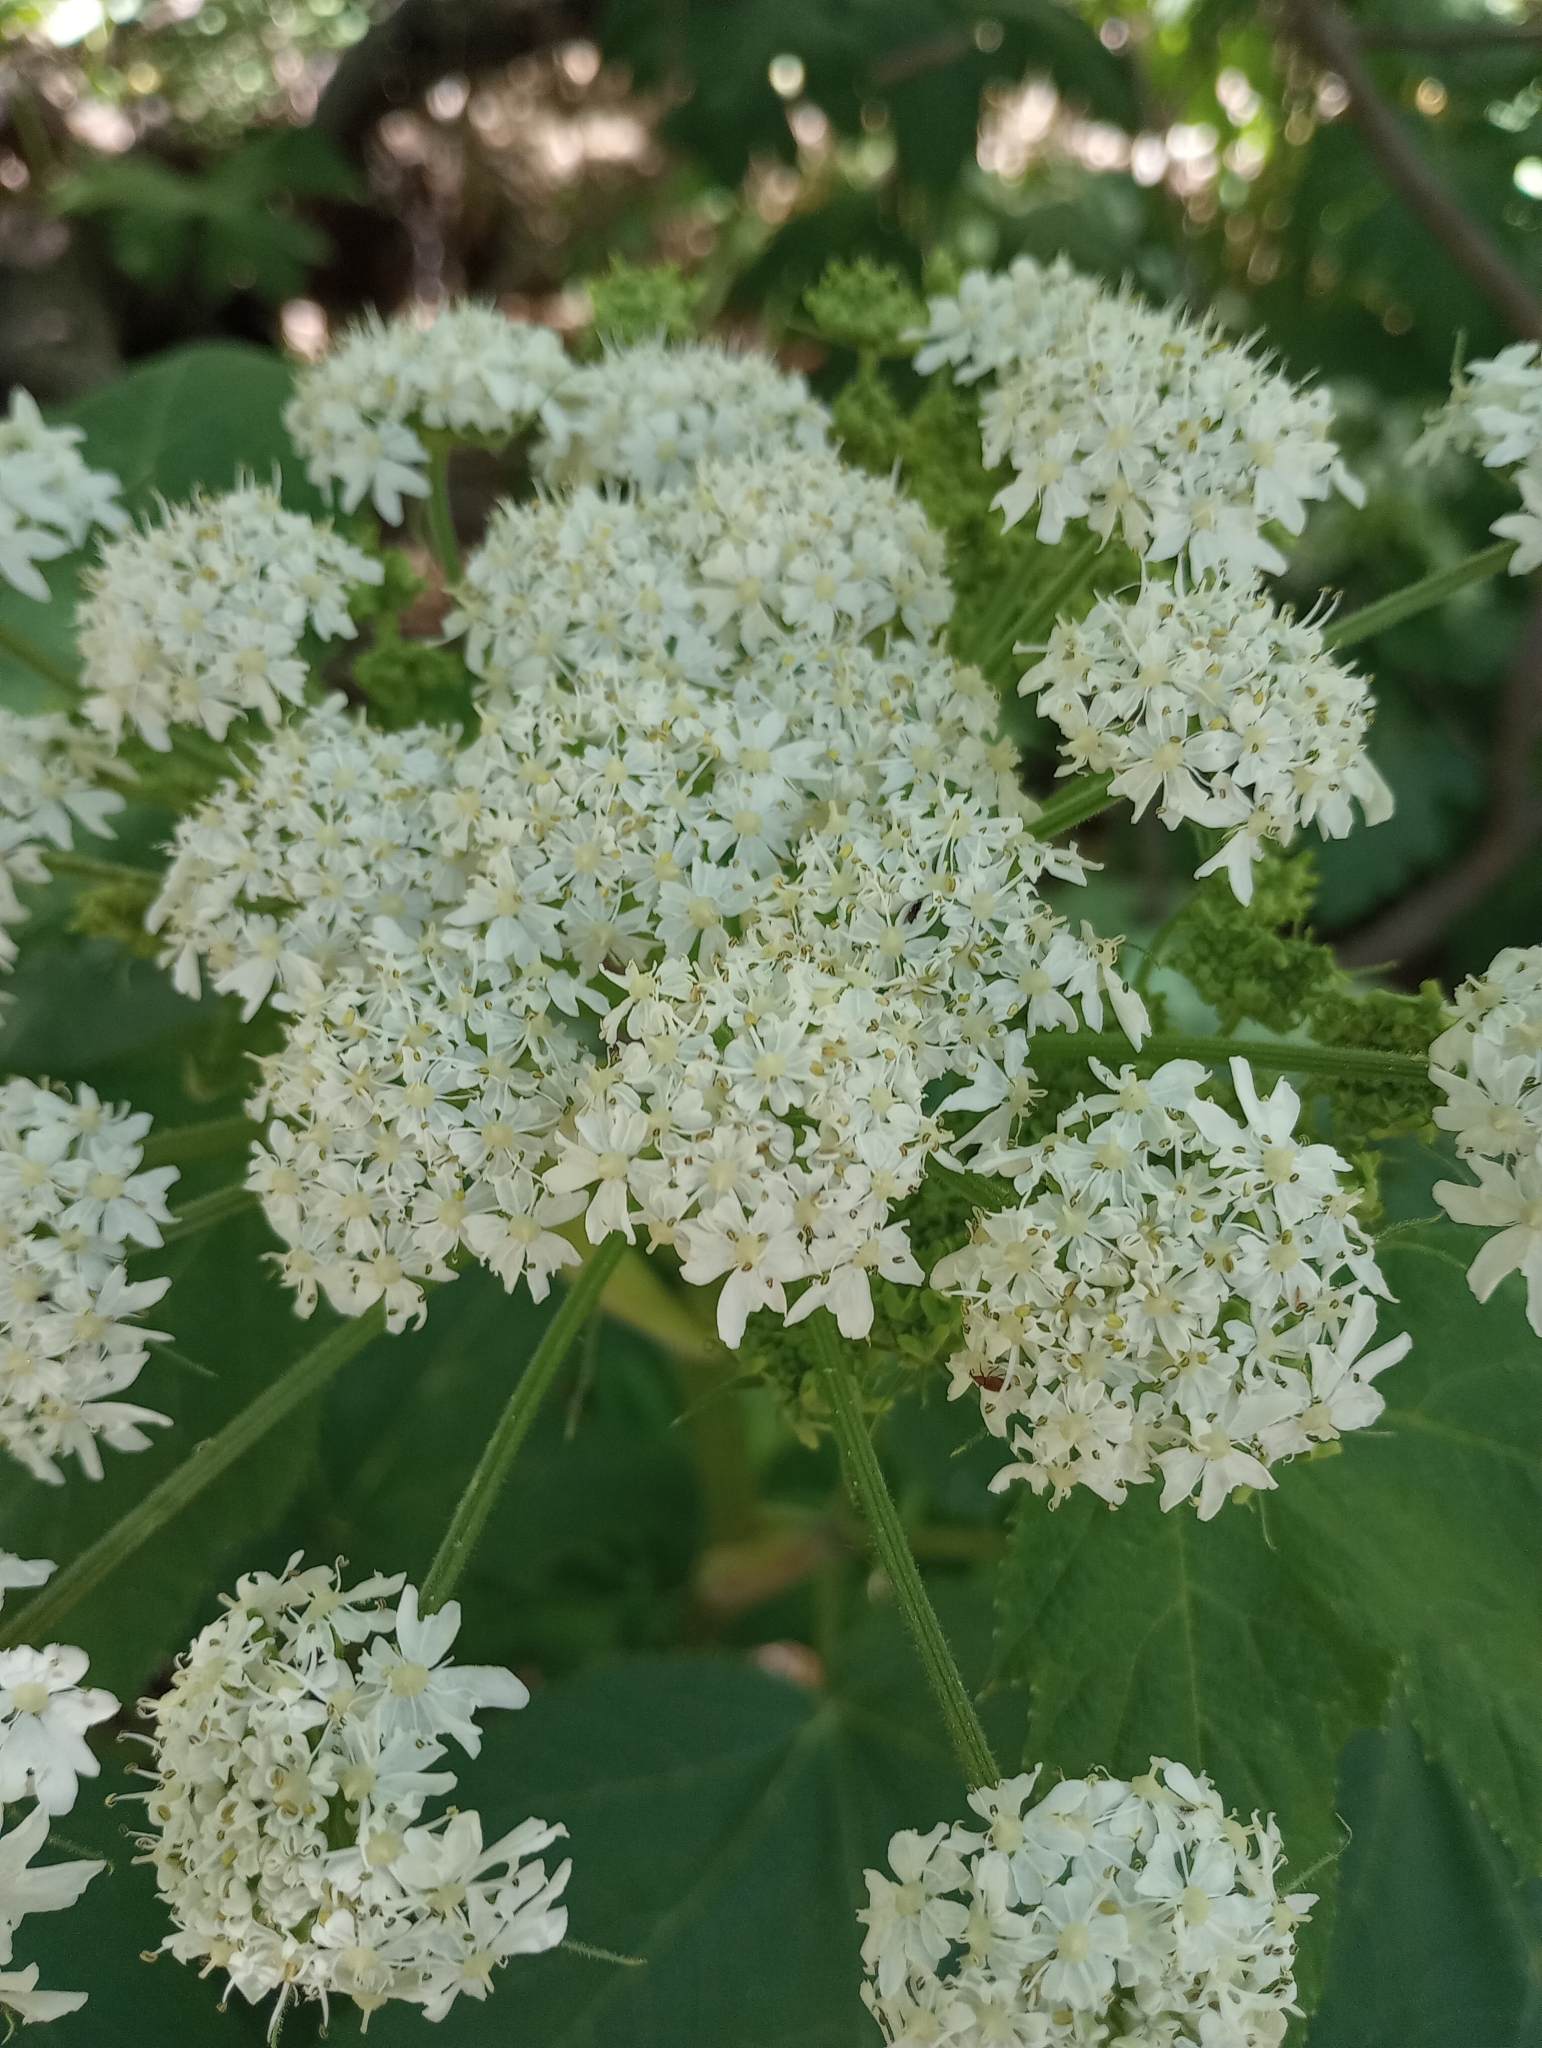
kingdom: Plantae
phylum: Tracheophyta
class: Magnoliopsida
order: Apiales
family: Apiaceae
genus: Heracleum
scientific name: Heracleum maximum
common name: American cow parsnip
